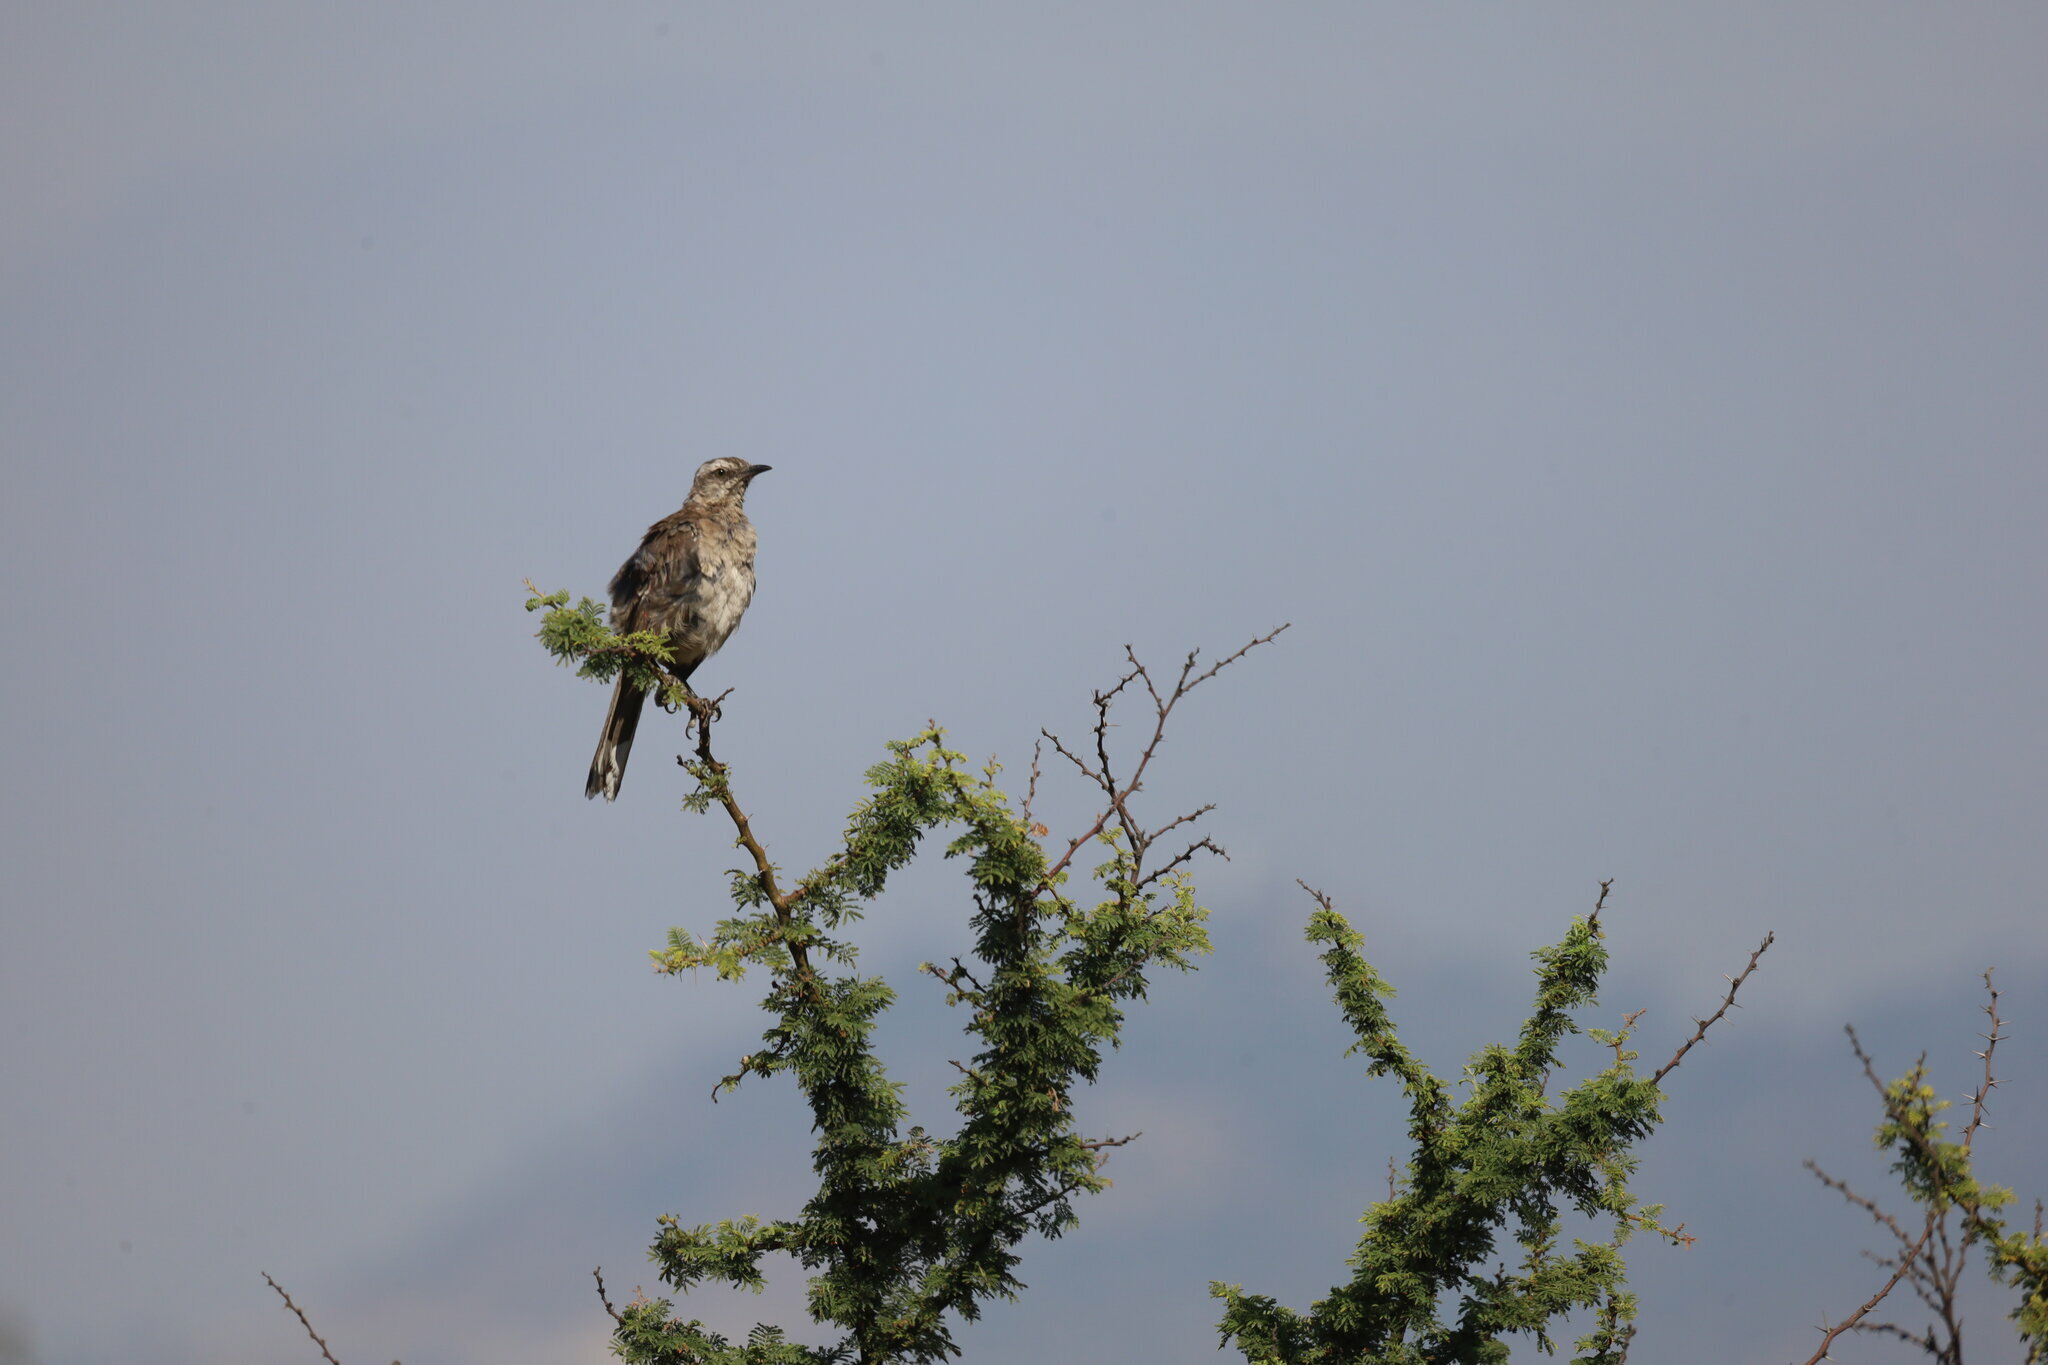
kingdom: Animalia
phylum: Chordata
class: Aves
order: Passeriformes
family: Mimidae
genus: Mimus
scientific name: Mimus thenca
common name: Chilean mockingbird
